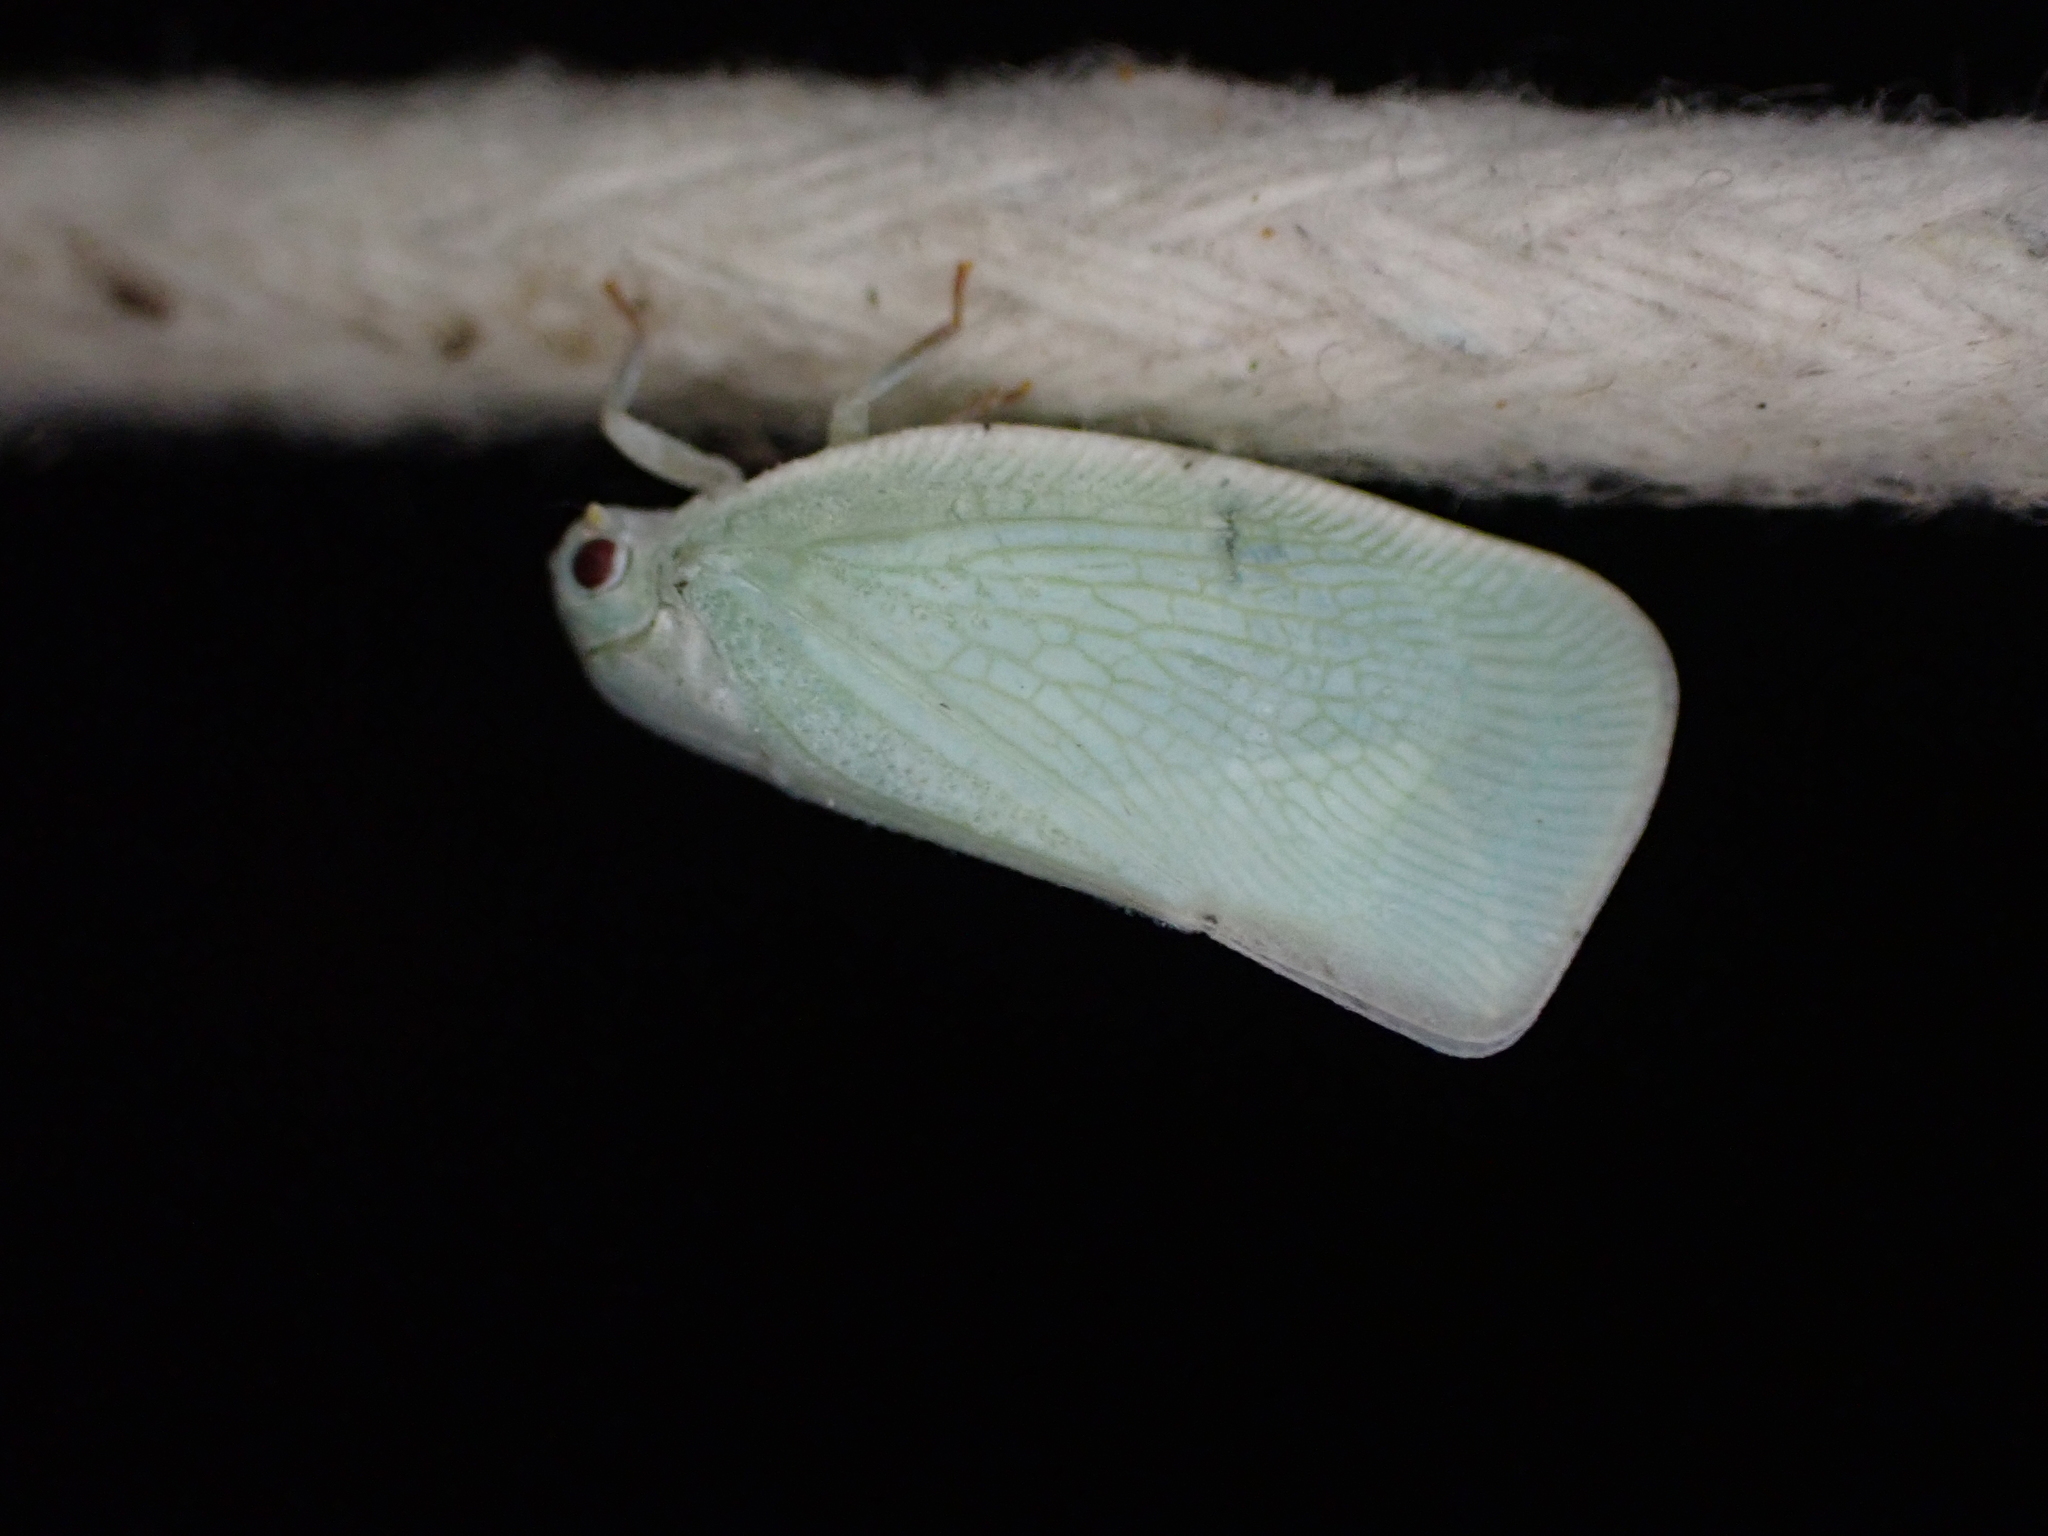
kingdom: Animalia
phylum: Arthropoda
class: Insecta
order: Hemiptera
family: Flatidae
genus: Flatormenis
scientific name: Flatormenis proxima
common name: Northern flatid planthopper
